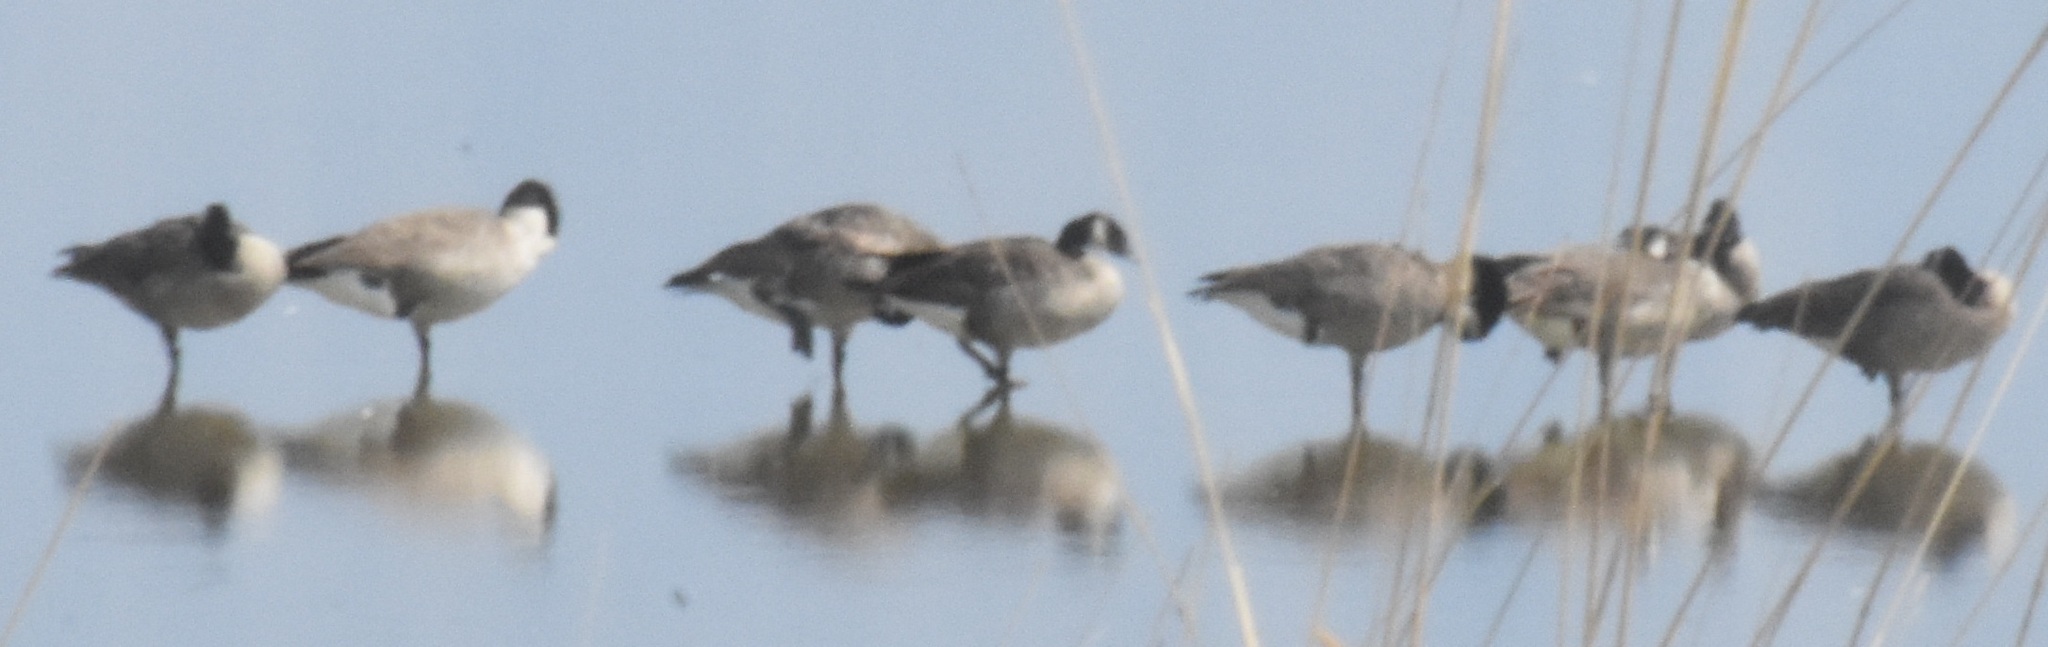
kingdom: Animalia
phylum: Chordata
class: Aves
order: Anseriformes
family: Anatidae
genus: Branta
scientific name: Branta canadensis
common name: Canada goose
